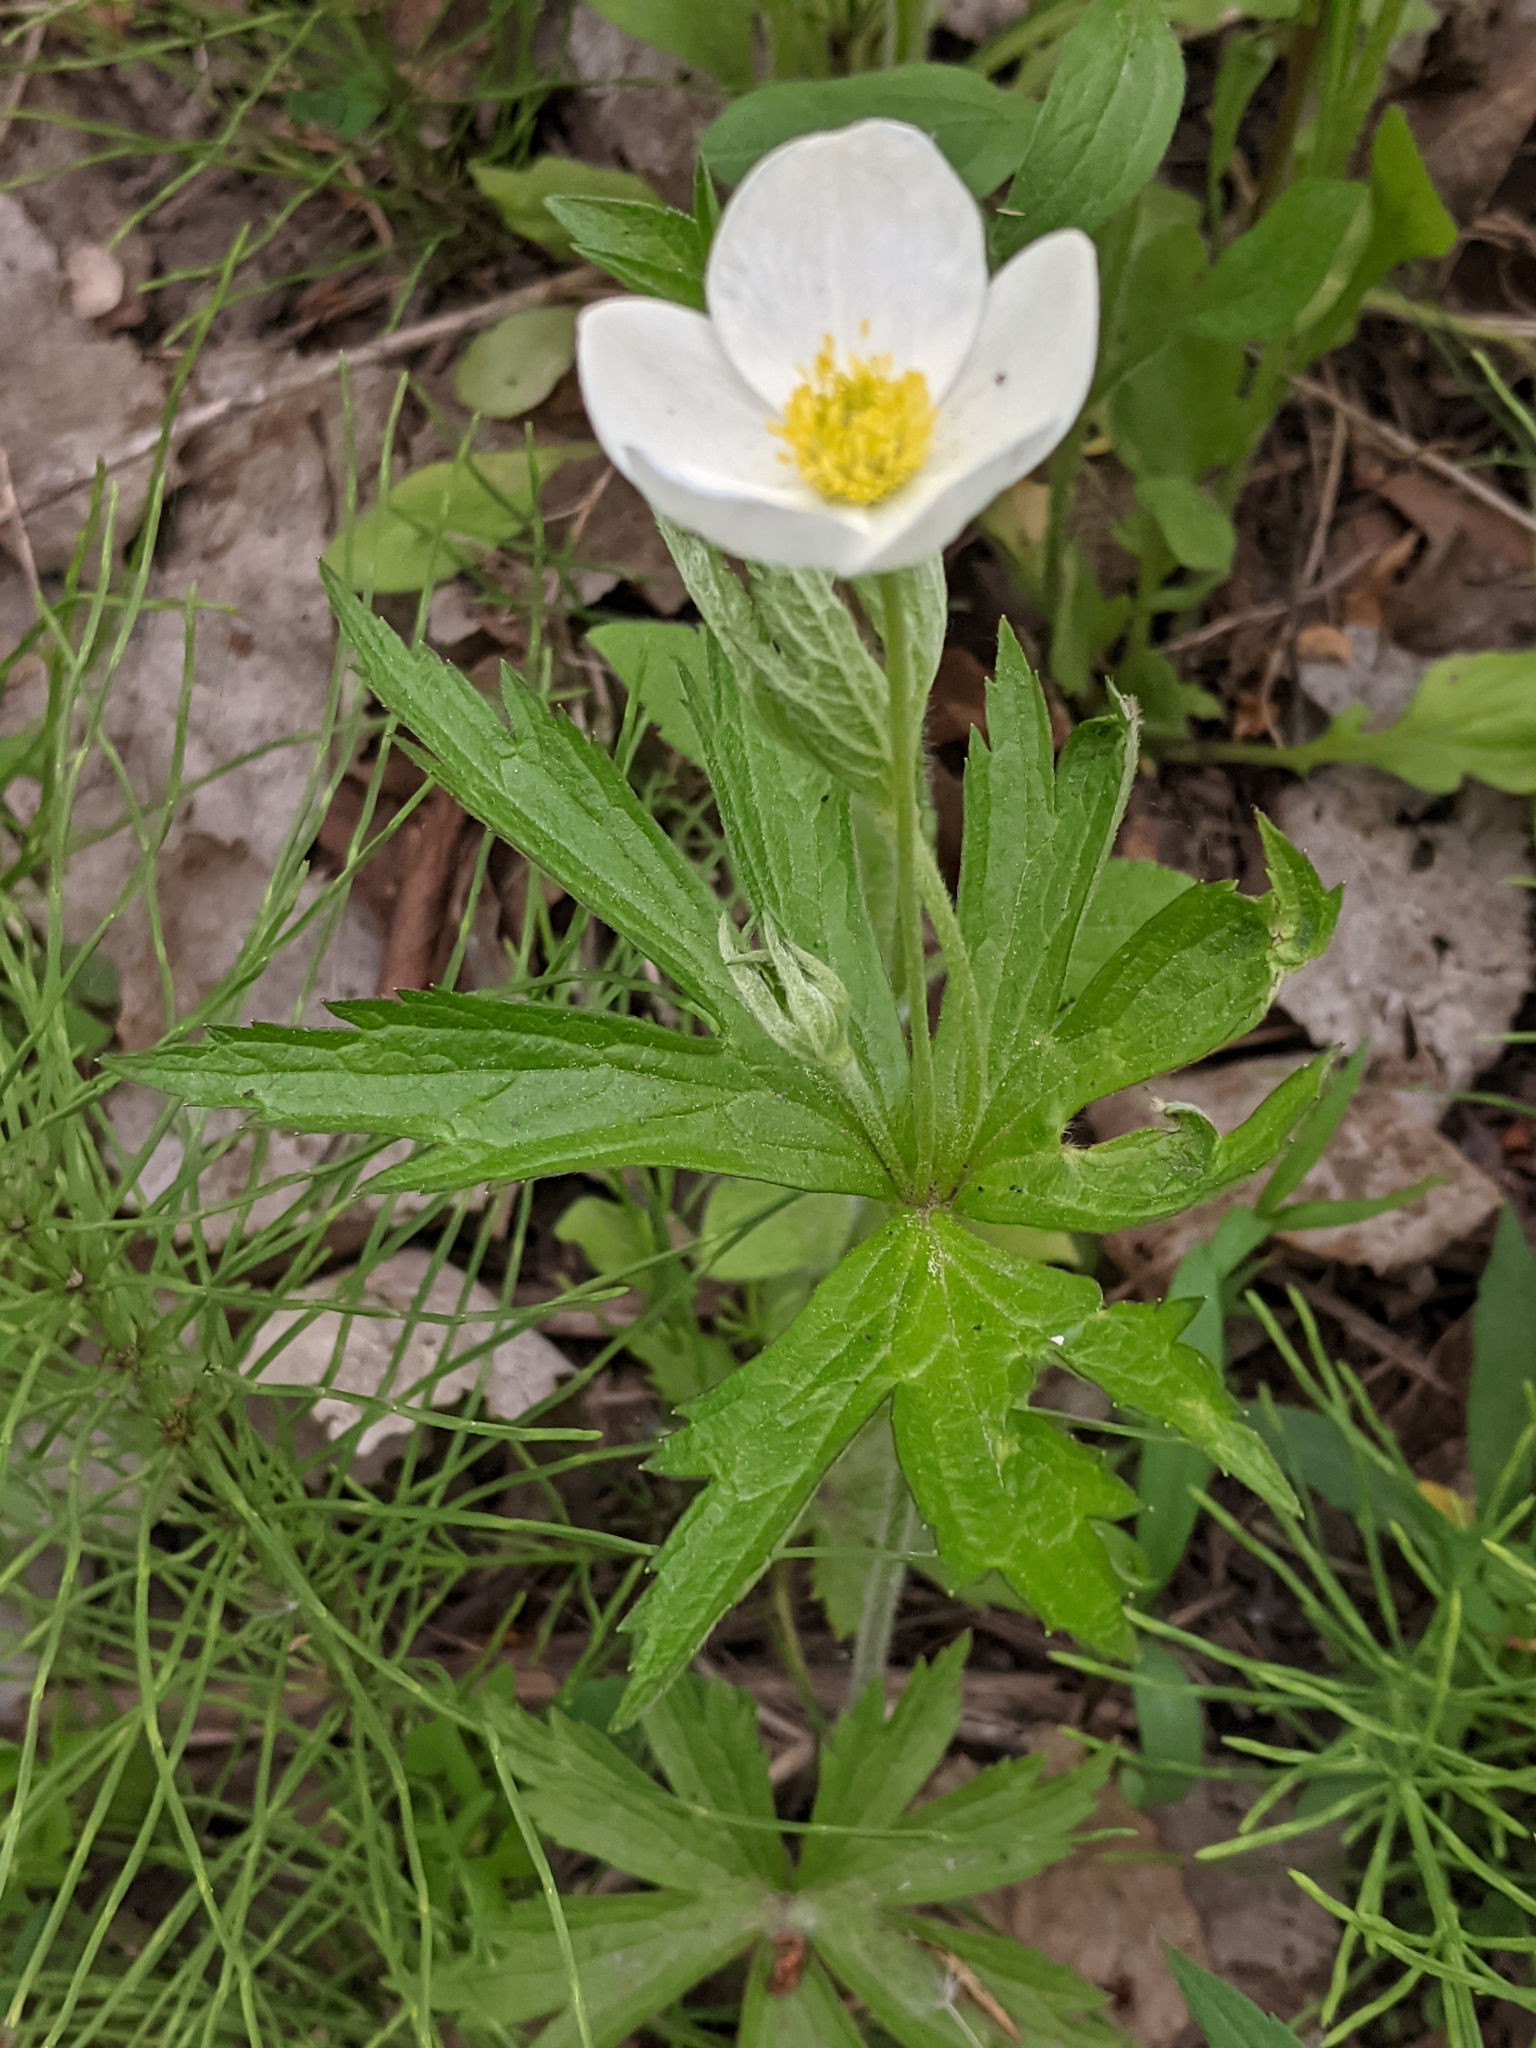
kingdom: Plantae
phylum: Tracheophyta
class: Magnoliopsida
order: Ranunculales
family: Ranunculaceae
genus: Anemonastrum
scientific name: Anemonastrum canadense
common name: Canada anemone
